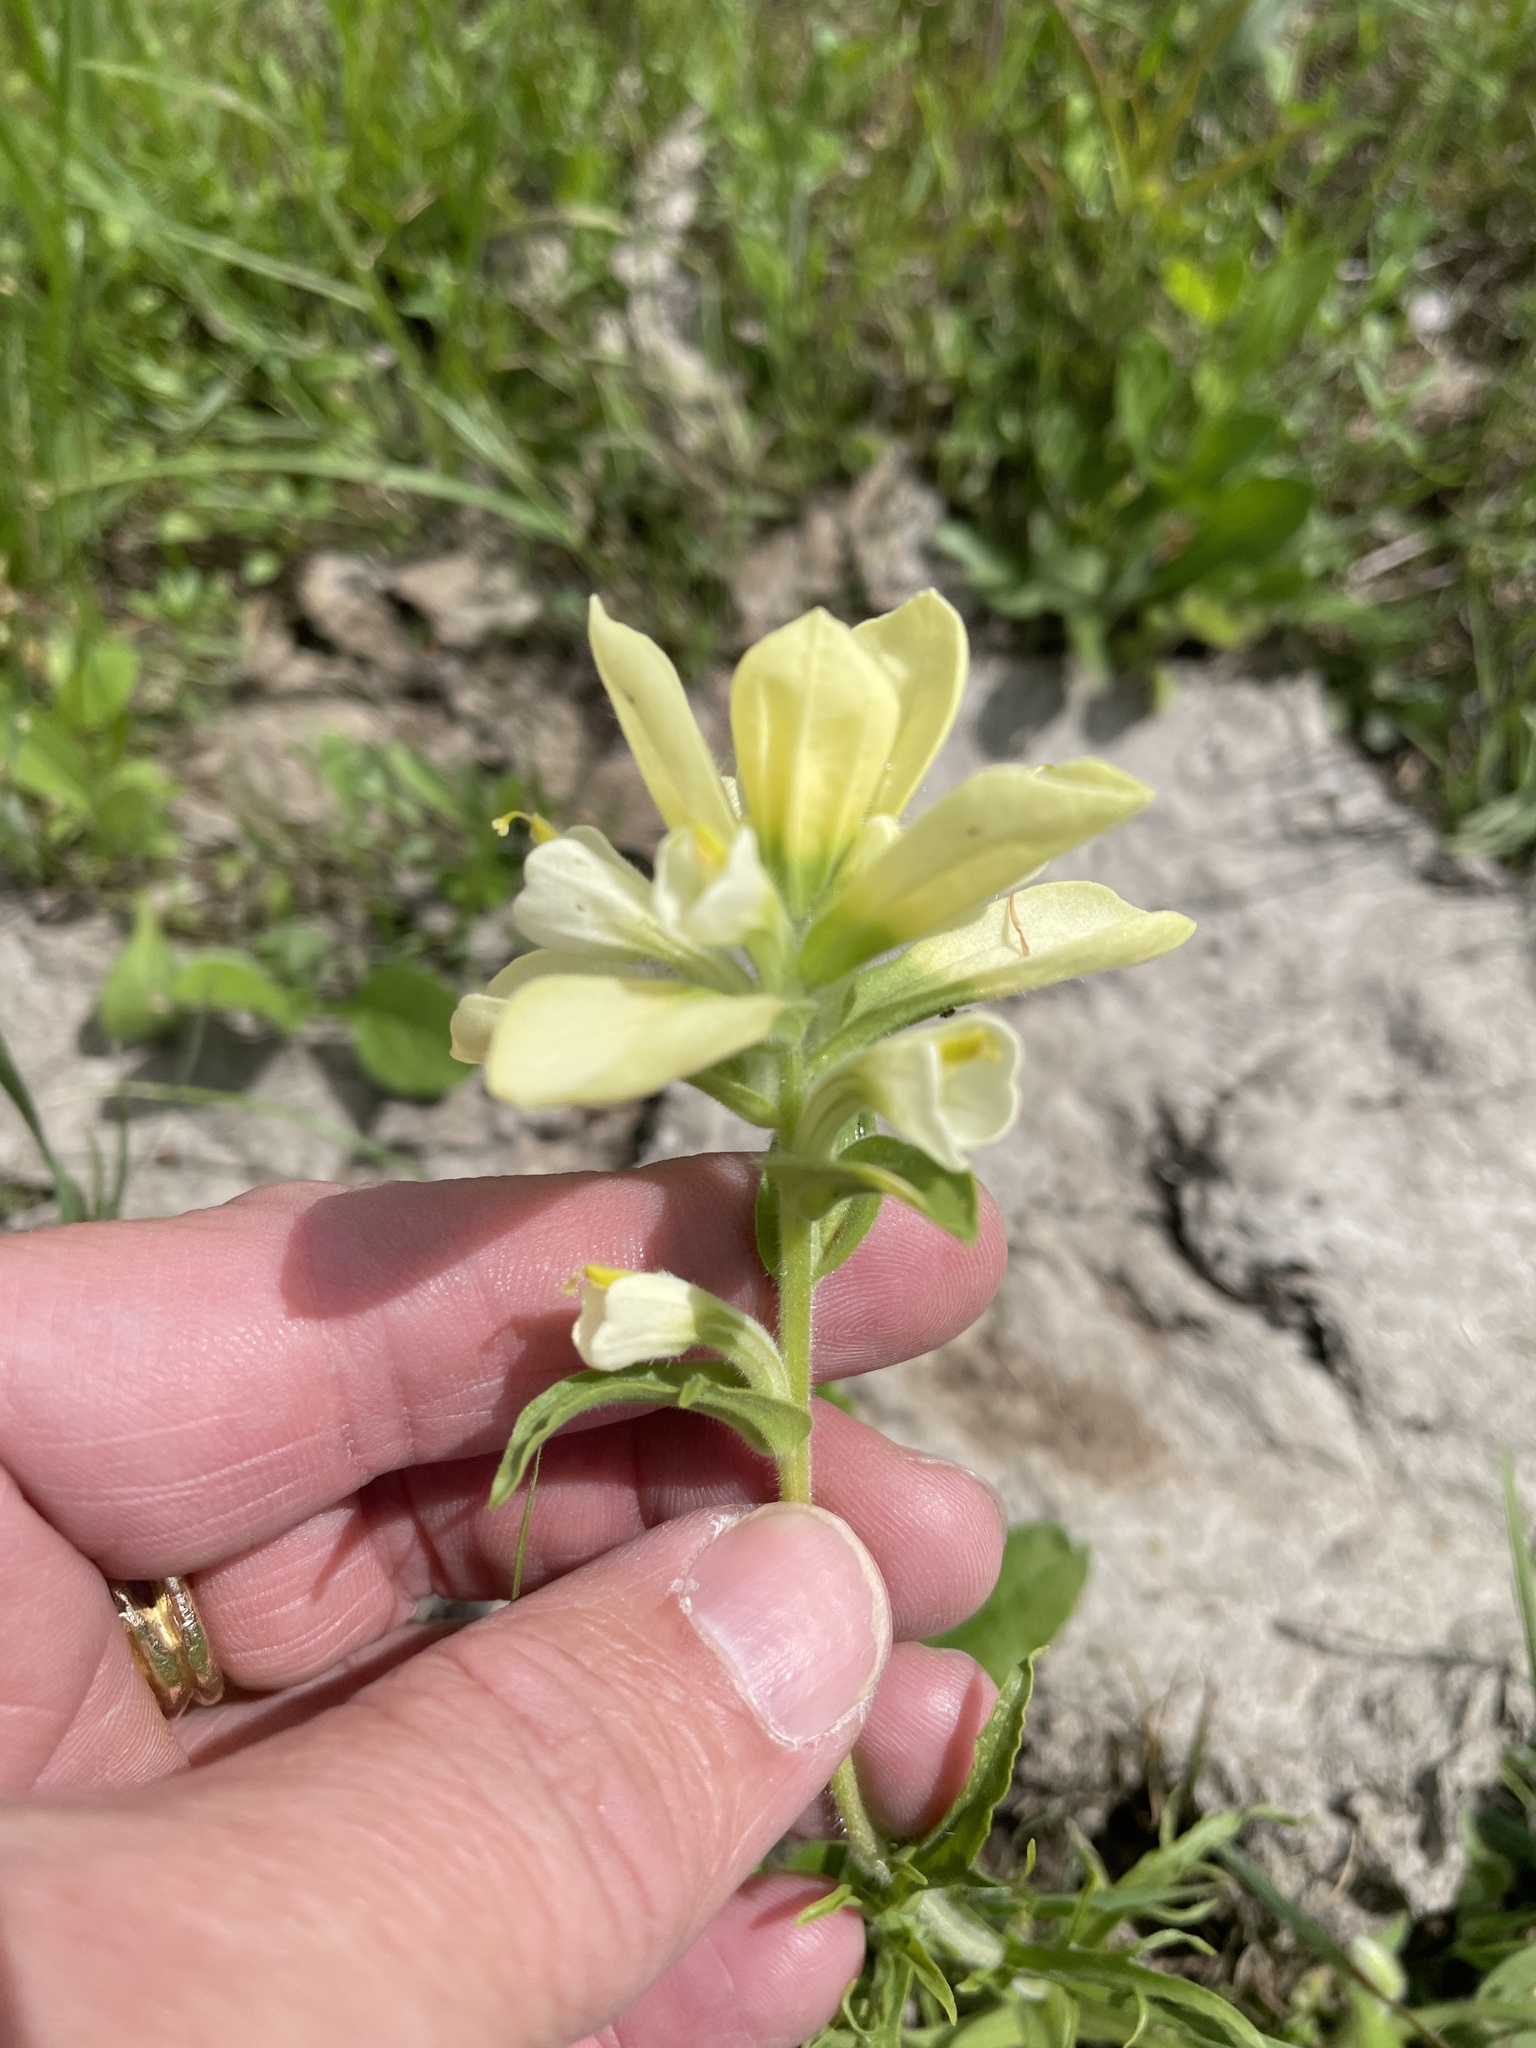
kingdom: Plantae
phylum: Tracheophyta
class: Magnoliopsida
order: Lamiales
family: Orobanchaceae
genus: Castilleja
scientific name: Castilleja indivisa
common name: Texas paintbrush
